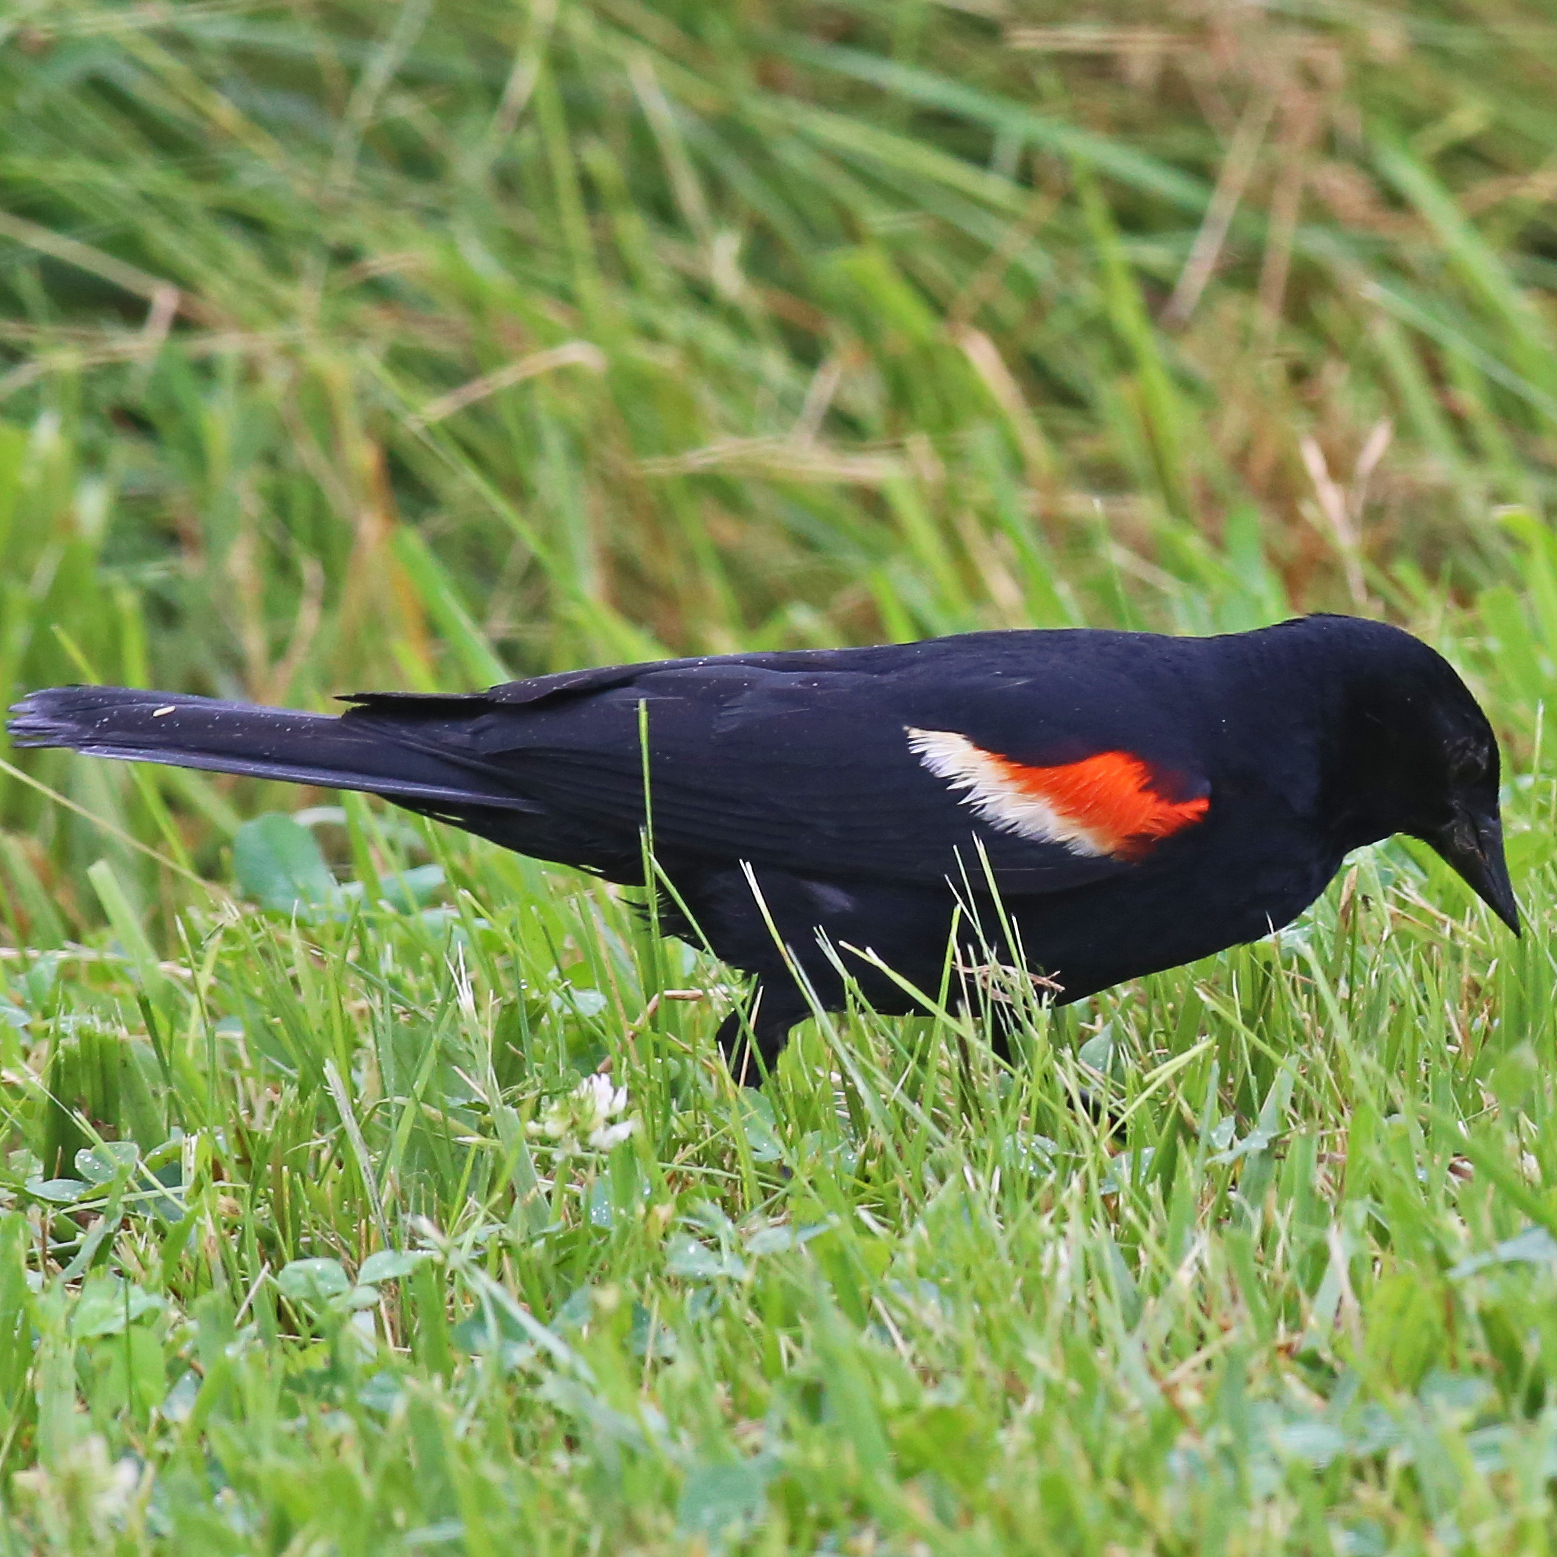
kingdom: Animalia
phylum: Chordata
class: Aves
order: Passeriformes
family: Icteridae
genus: Agelaius
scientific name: Agelaius phoeniceus
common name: Red-winged blackbird
